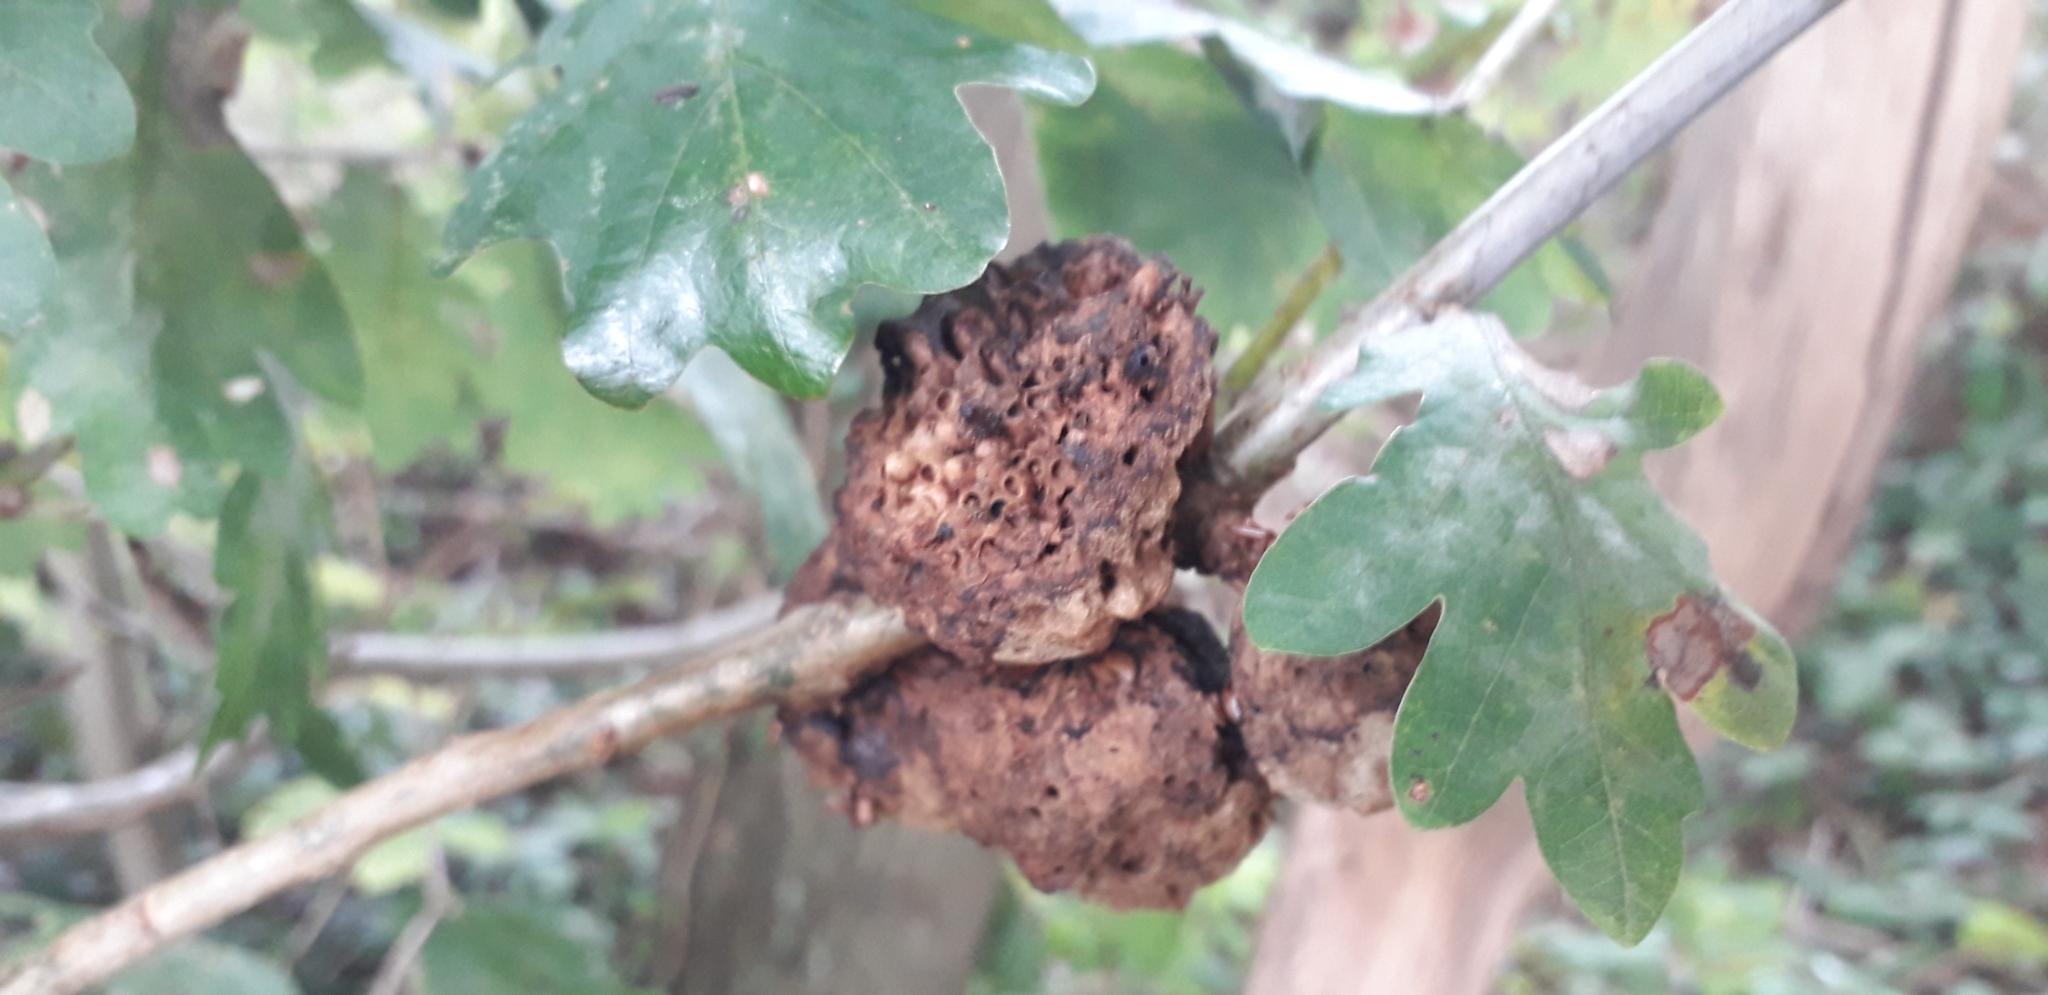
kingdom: Animalia
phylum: Arthropoda
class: Insecta
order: Hymenoptera
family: Cynipidae
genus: Biorhiza
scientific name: Biorhiza pallida
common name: Oak apple
